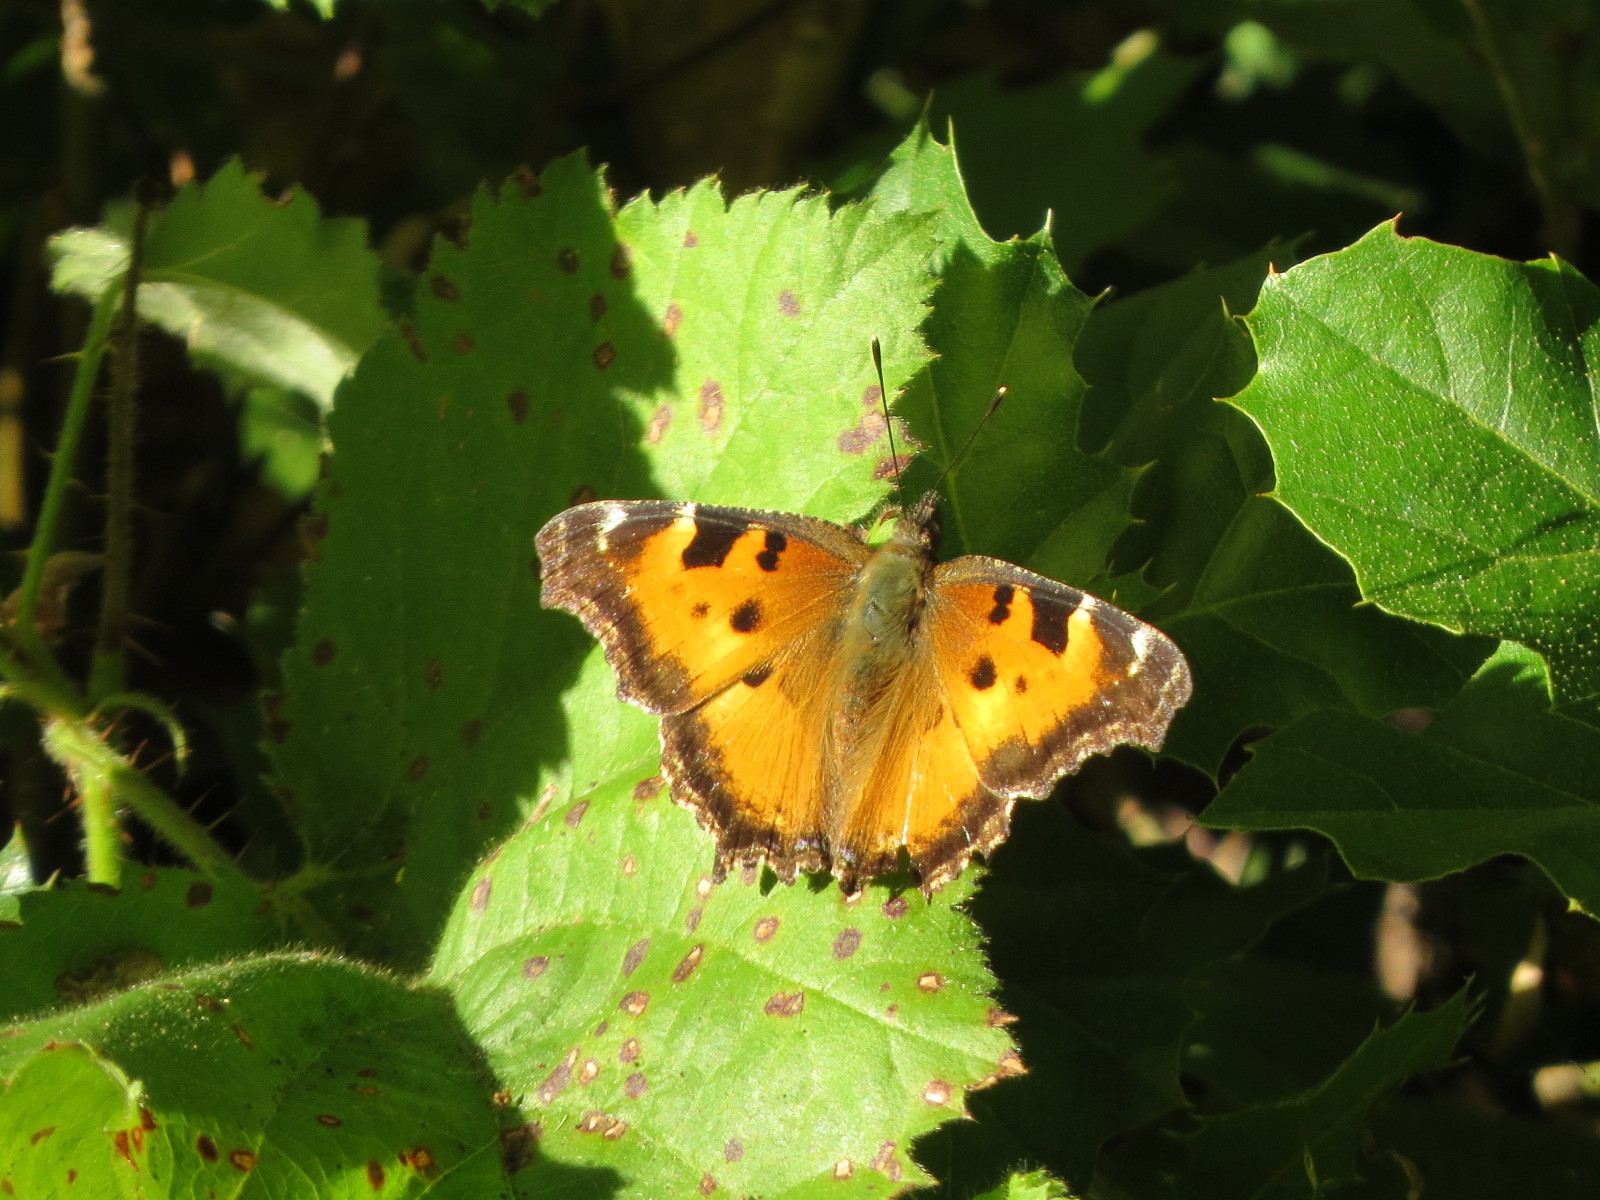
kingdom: Animalia
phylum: Arthropoda
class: Insecta
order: Lepidoptera
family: Nymphalidae
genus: Nymphalis
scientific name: Nymphalis californica
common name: California tortoiseshell
